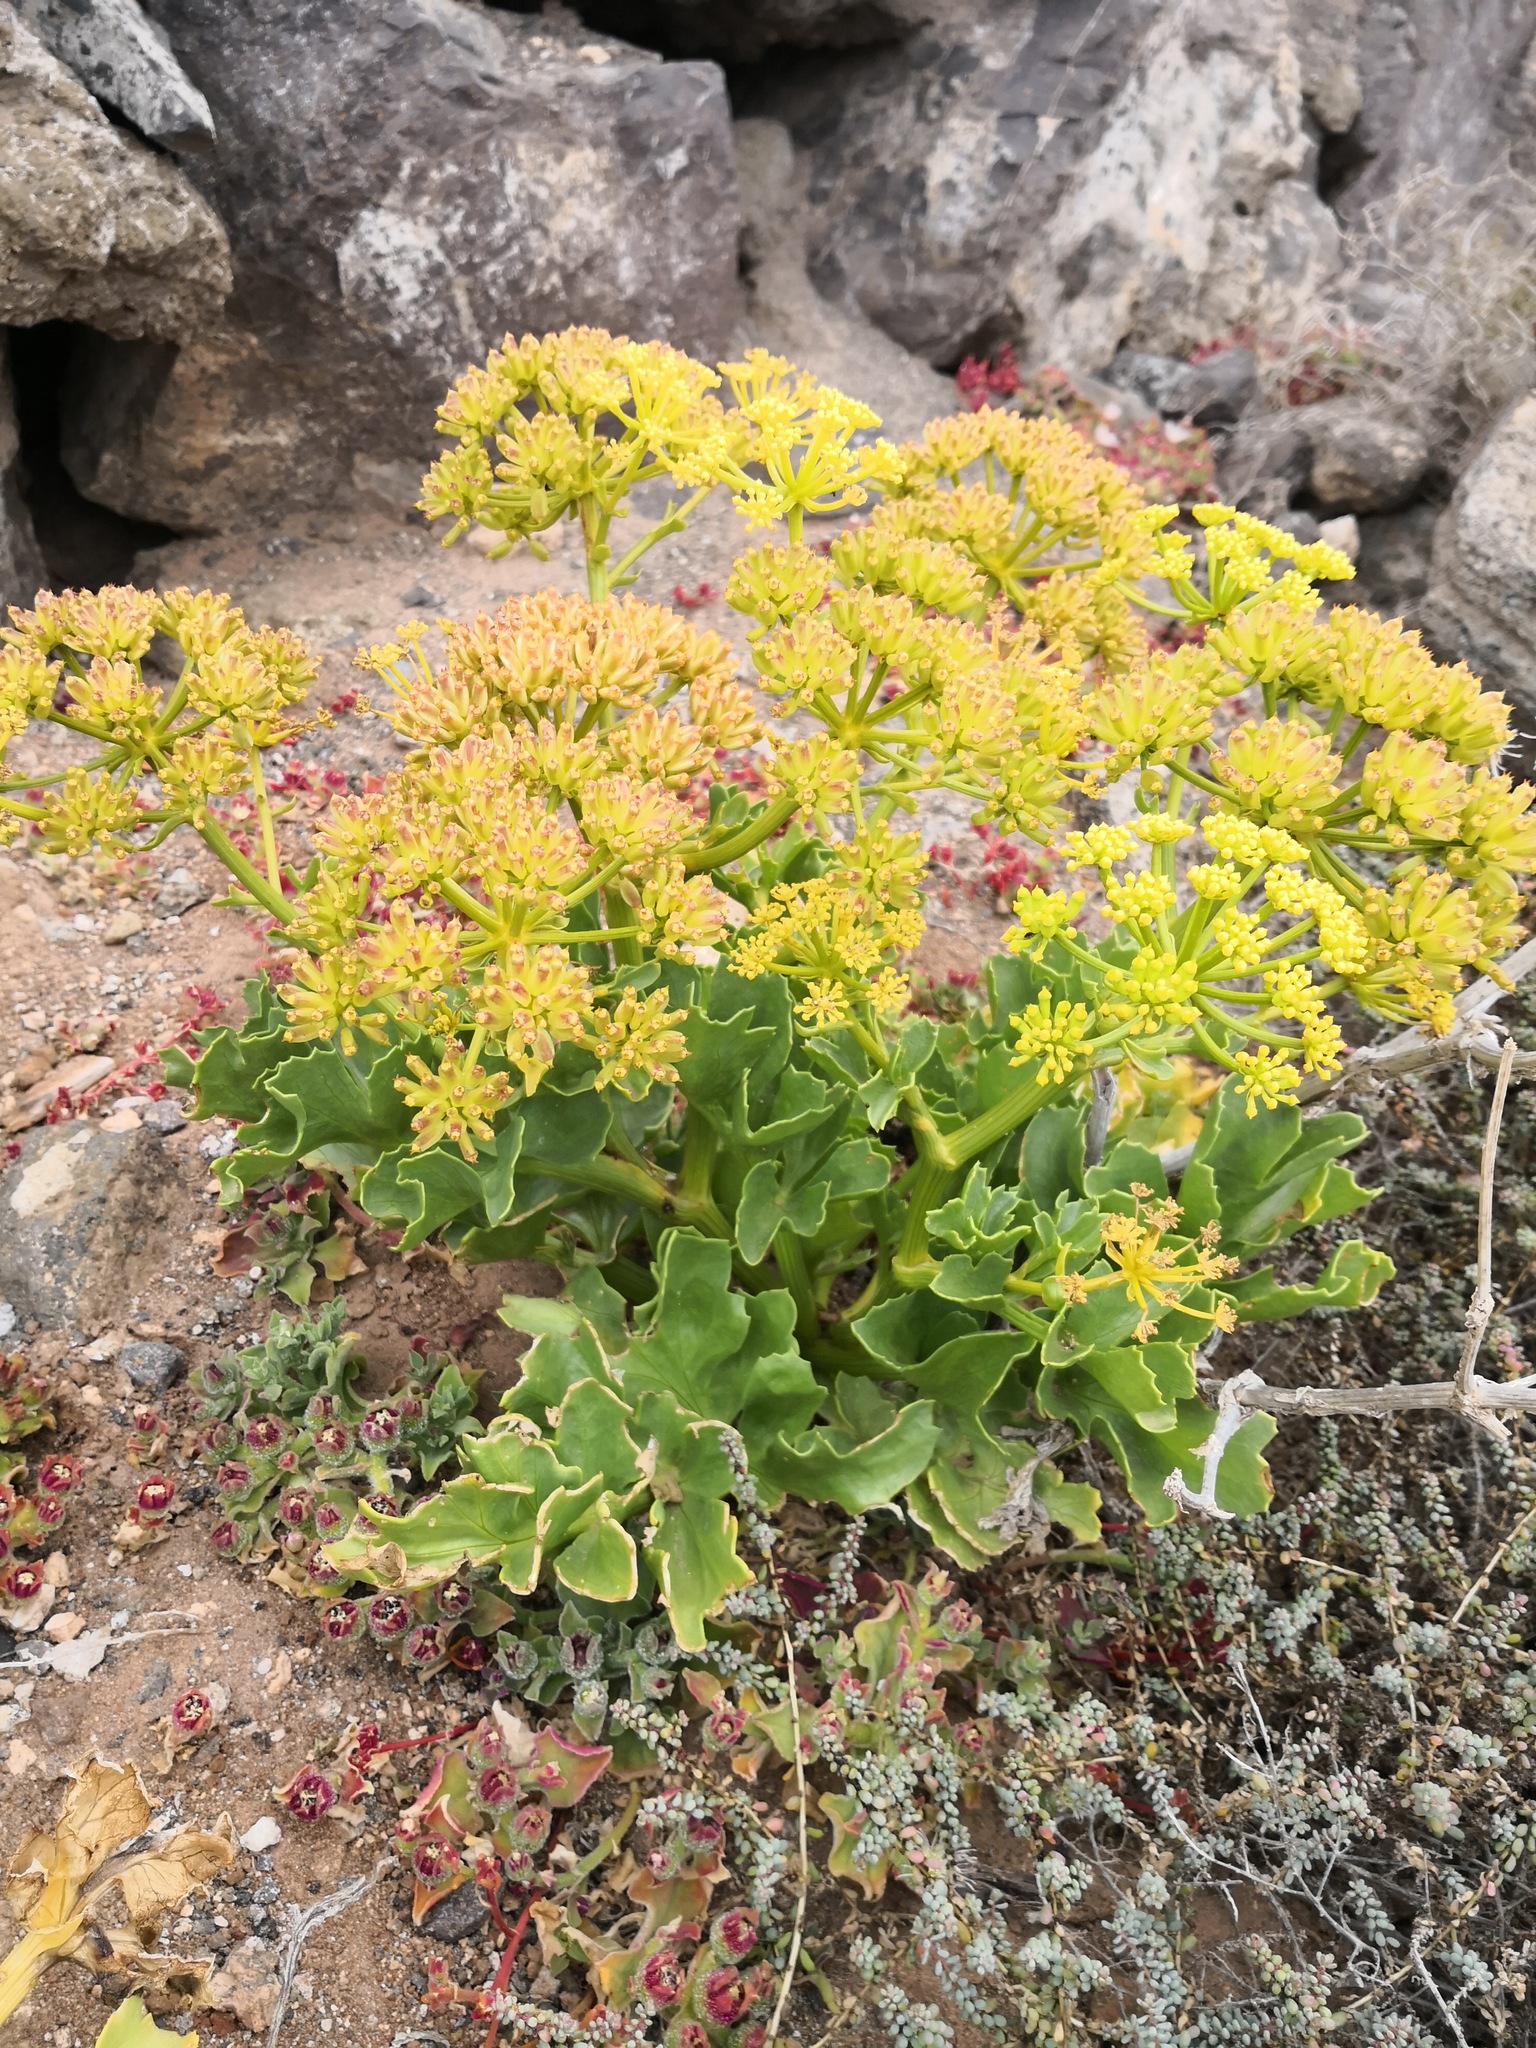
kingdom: Plantae
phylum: Tracheophyta
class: Magnoliopsida
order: Apiales
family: Apiaceae
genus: Astydamia
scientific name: Astydamia latifolia
